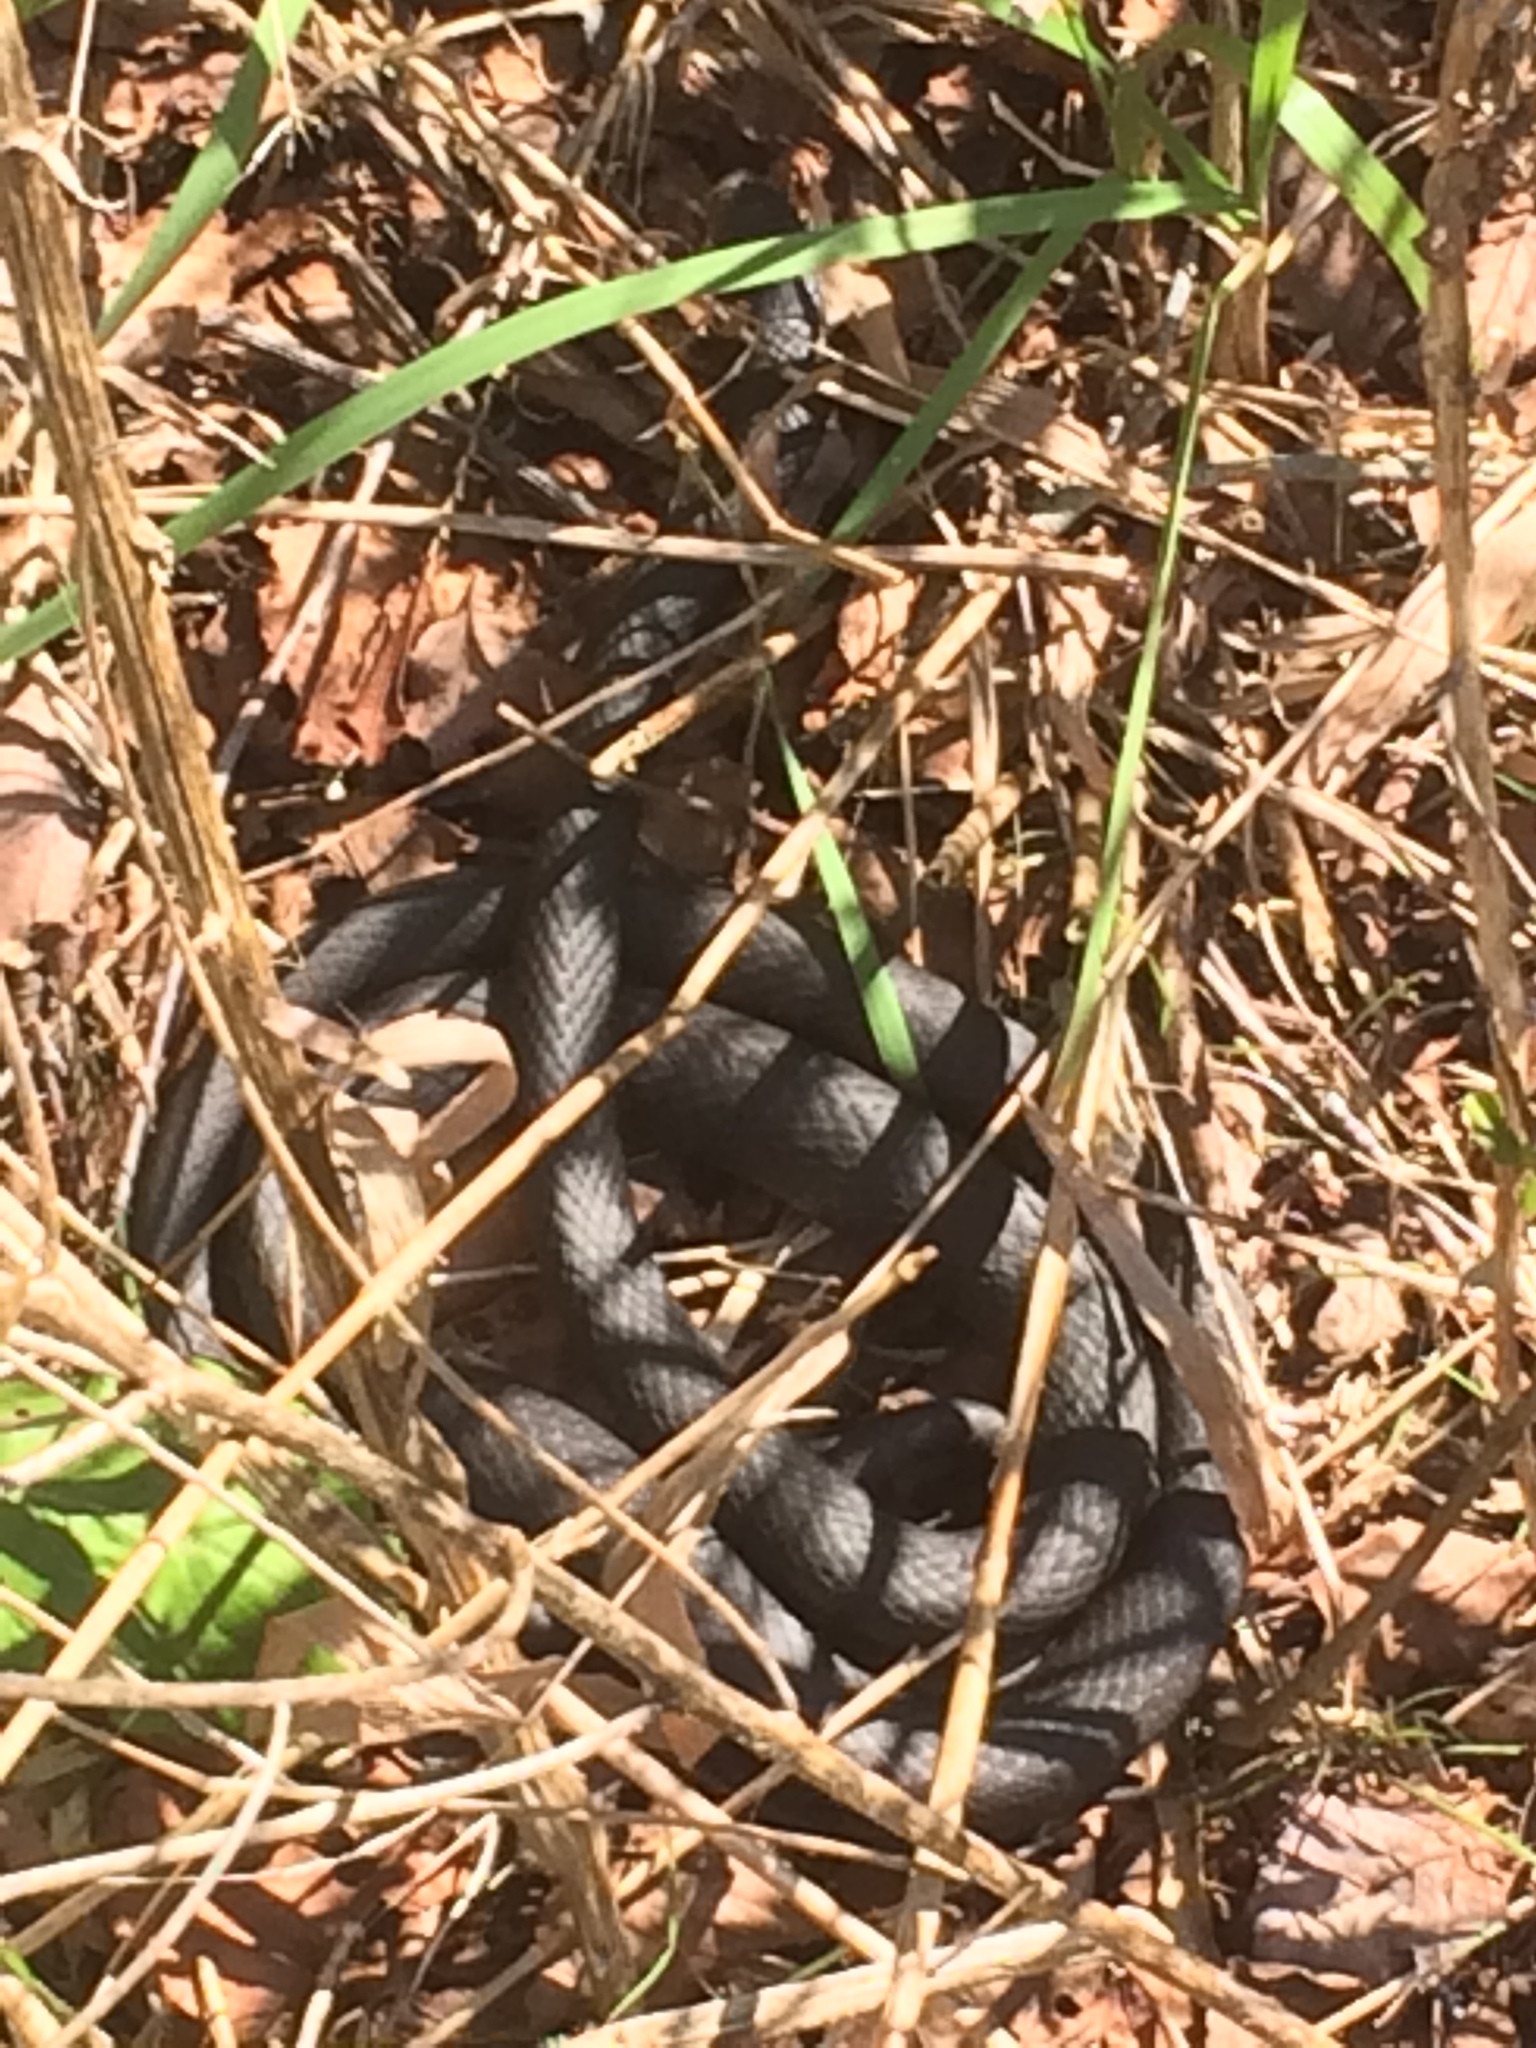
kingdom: Animalia
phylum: Chordata
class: Squamata
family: Colubridae
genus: Coluber
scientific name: Coluber constrictor
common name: Eastern racer
